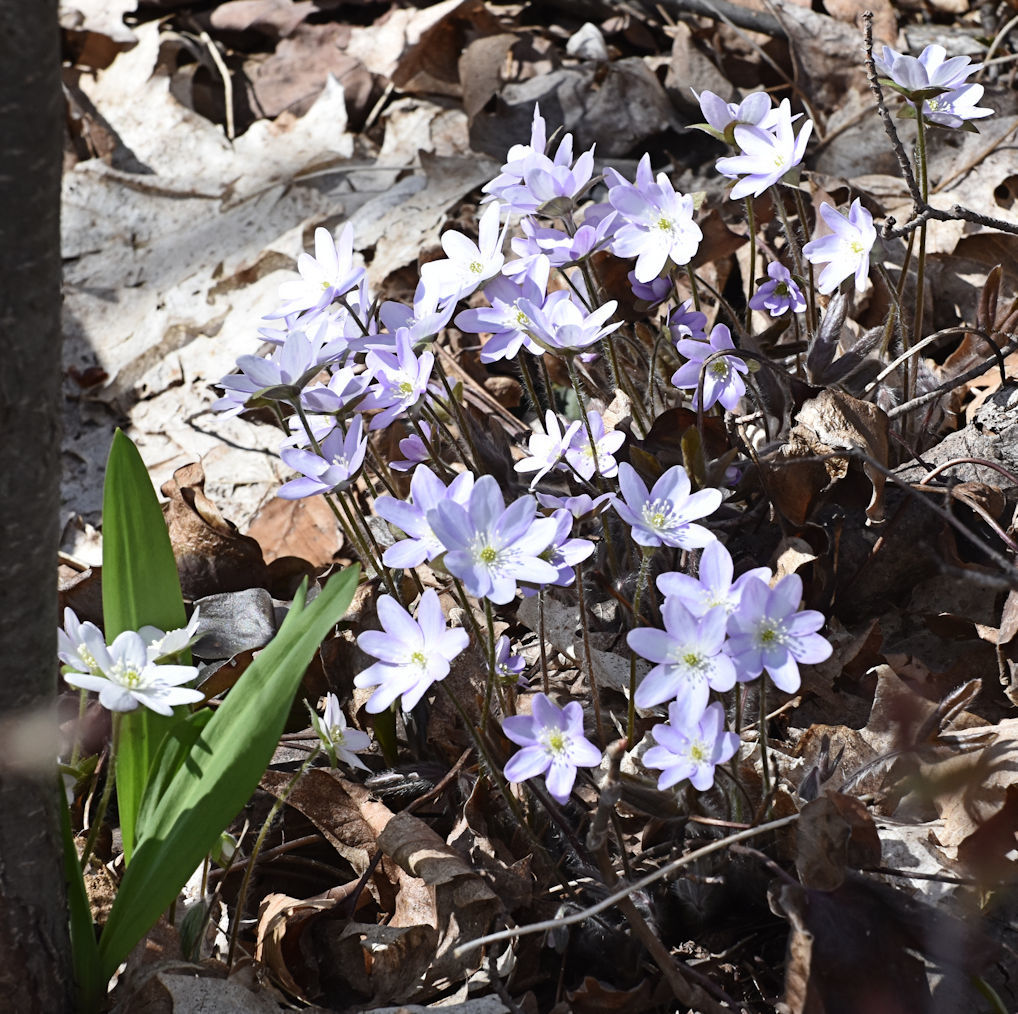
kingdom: Plantae
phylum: Tracheophyta
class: Magnoliopsida
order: Ranunculales
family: Ranunculaceae
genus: Hepatica
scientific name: Hepatica acutiloba
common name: Sharp-lobed hepatica
